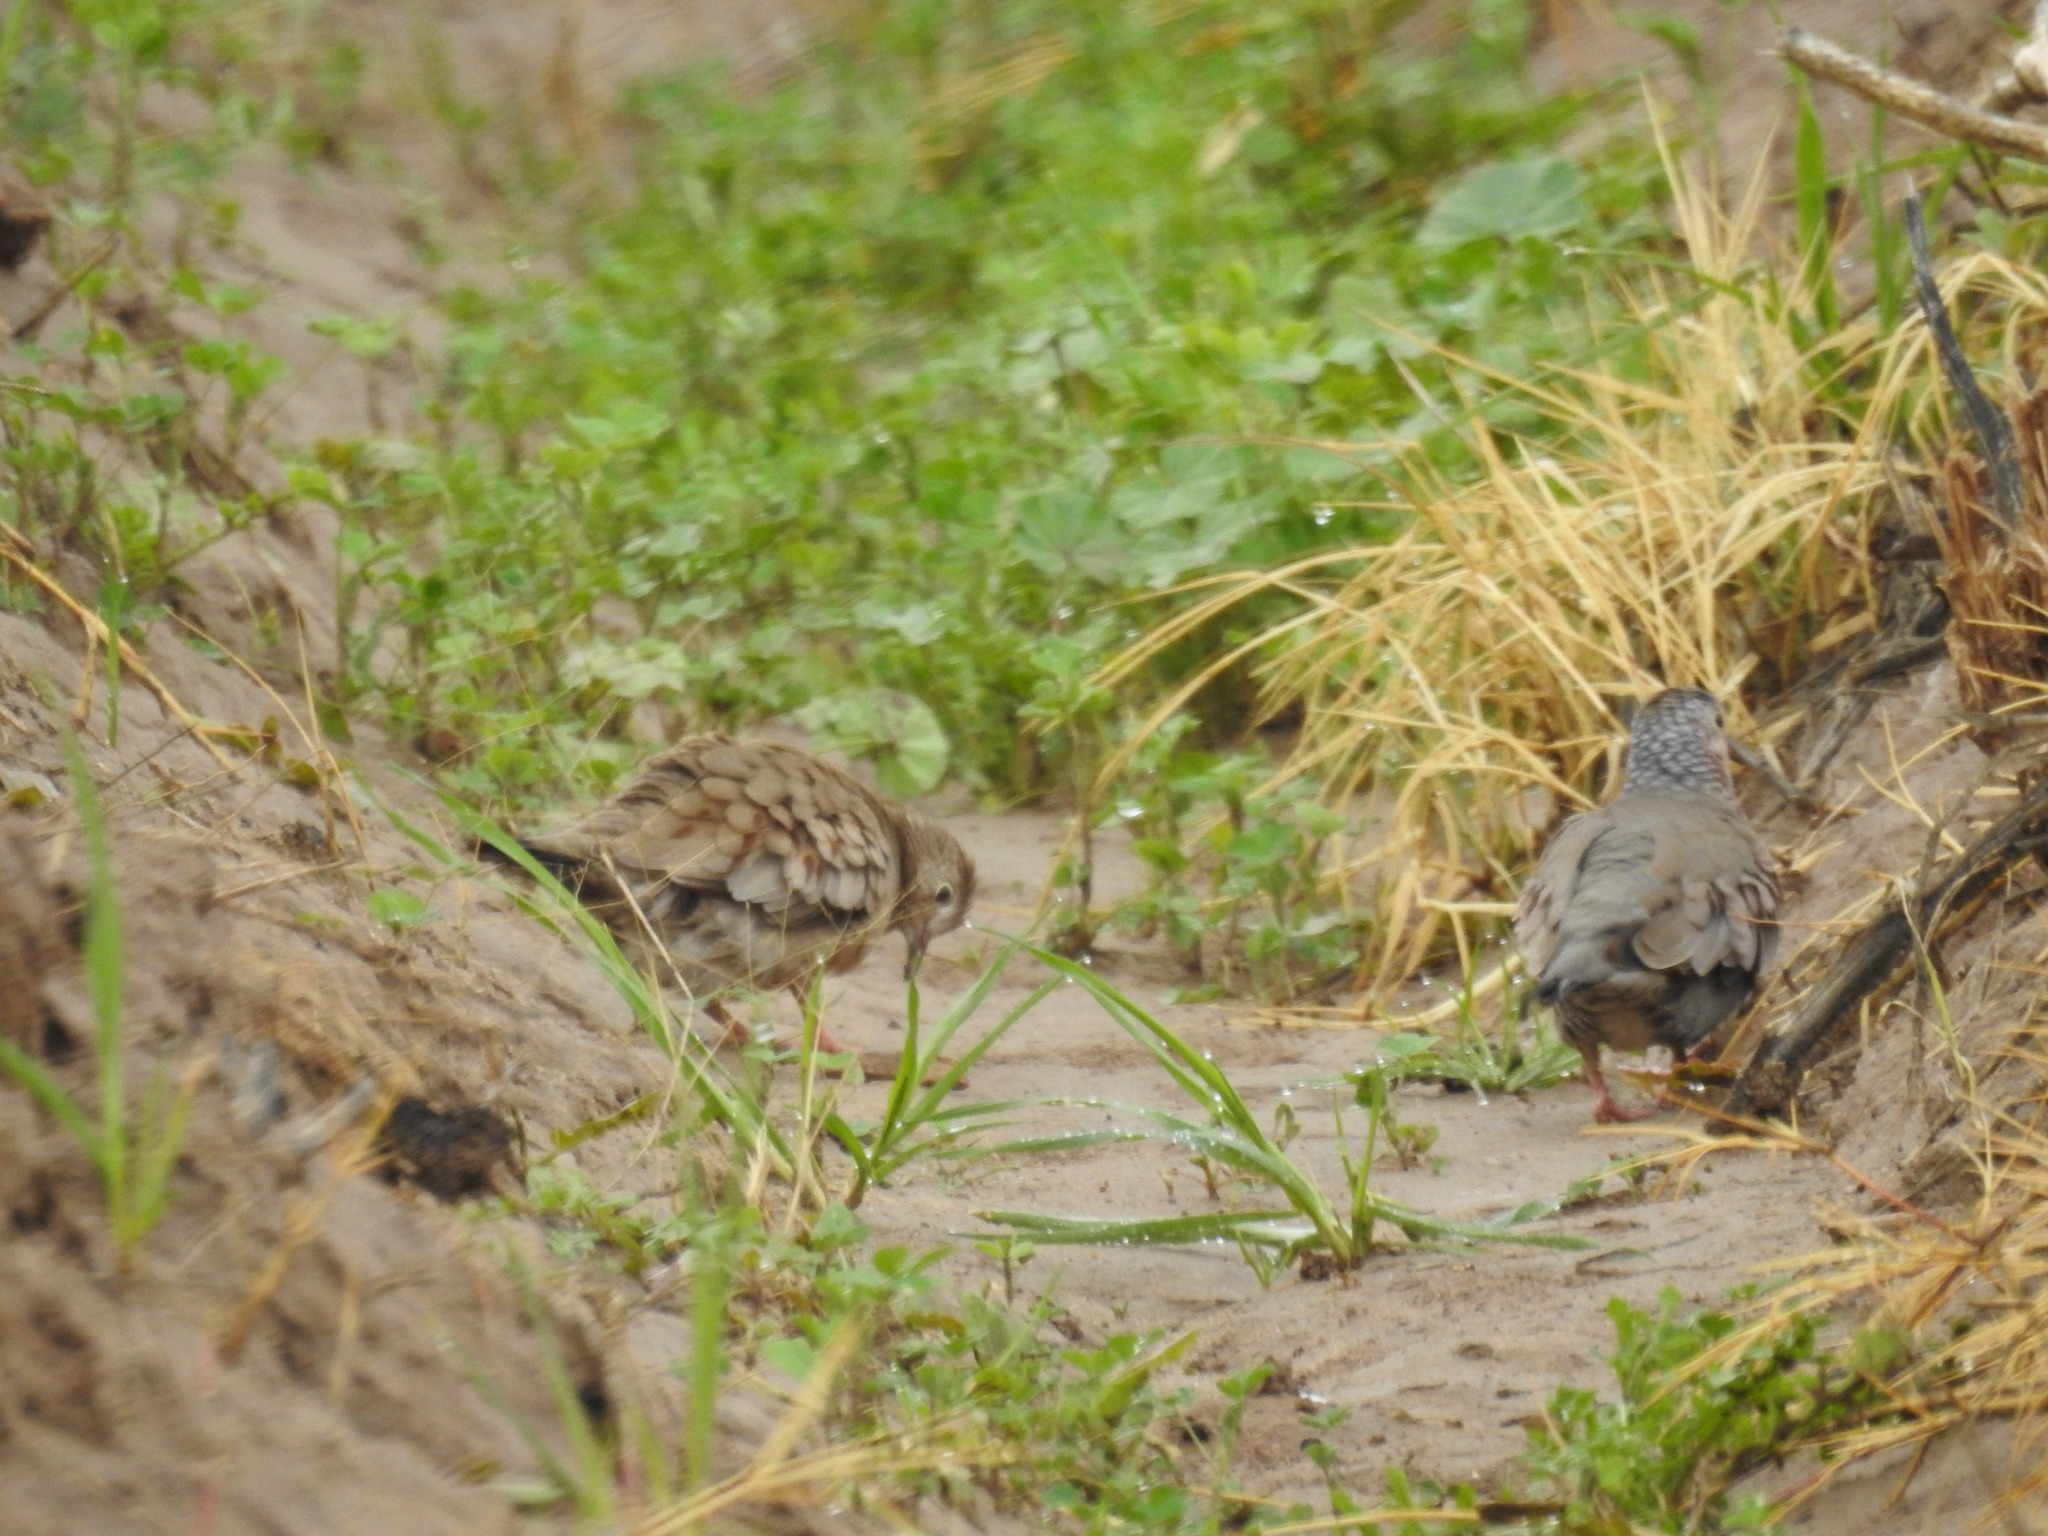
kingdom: Animalia
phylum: Chordata
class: Aves
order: Columbiformes
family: Columbidae
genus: Columbina
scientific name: Columbina passerina
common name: Common ground-dove
